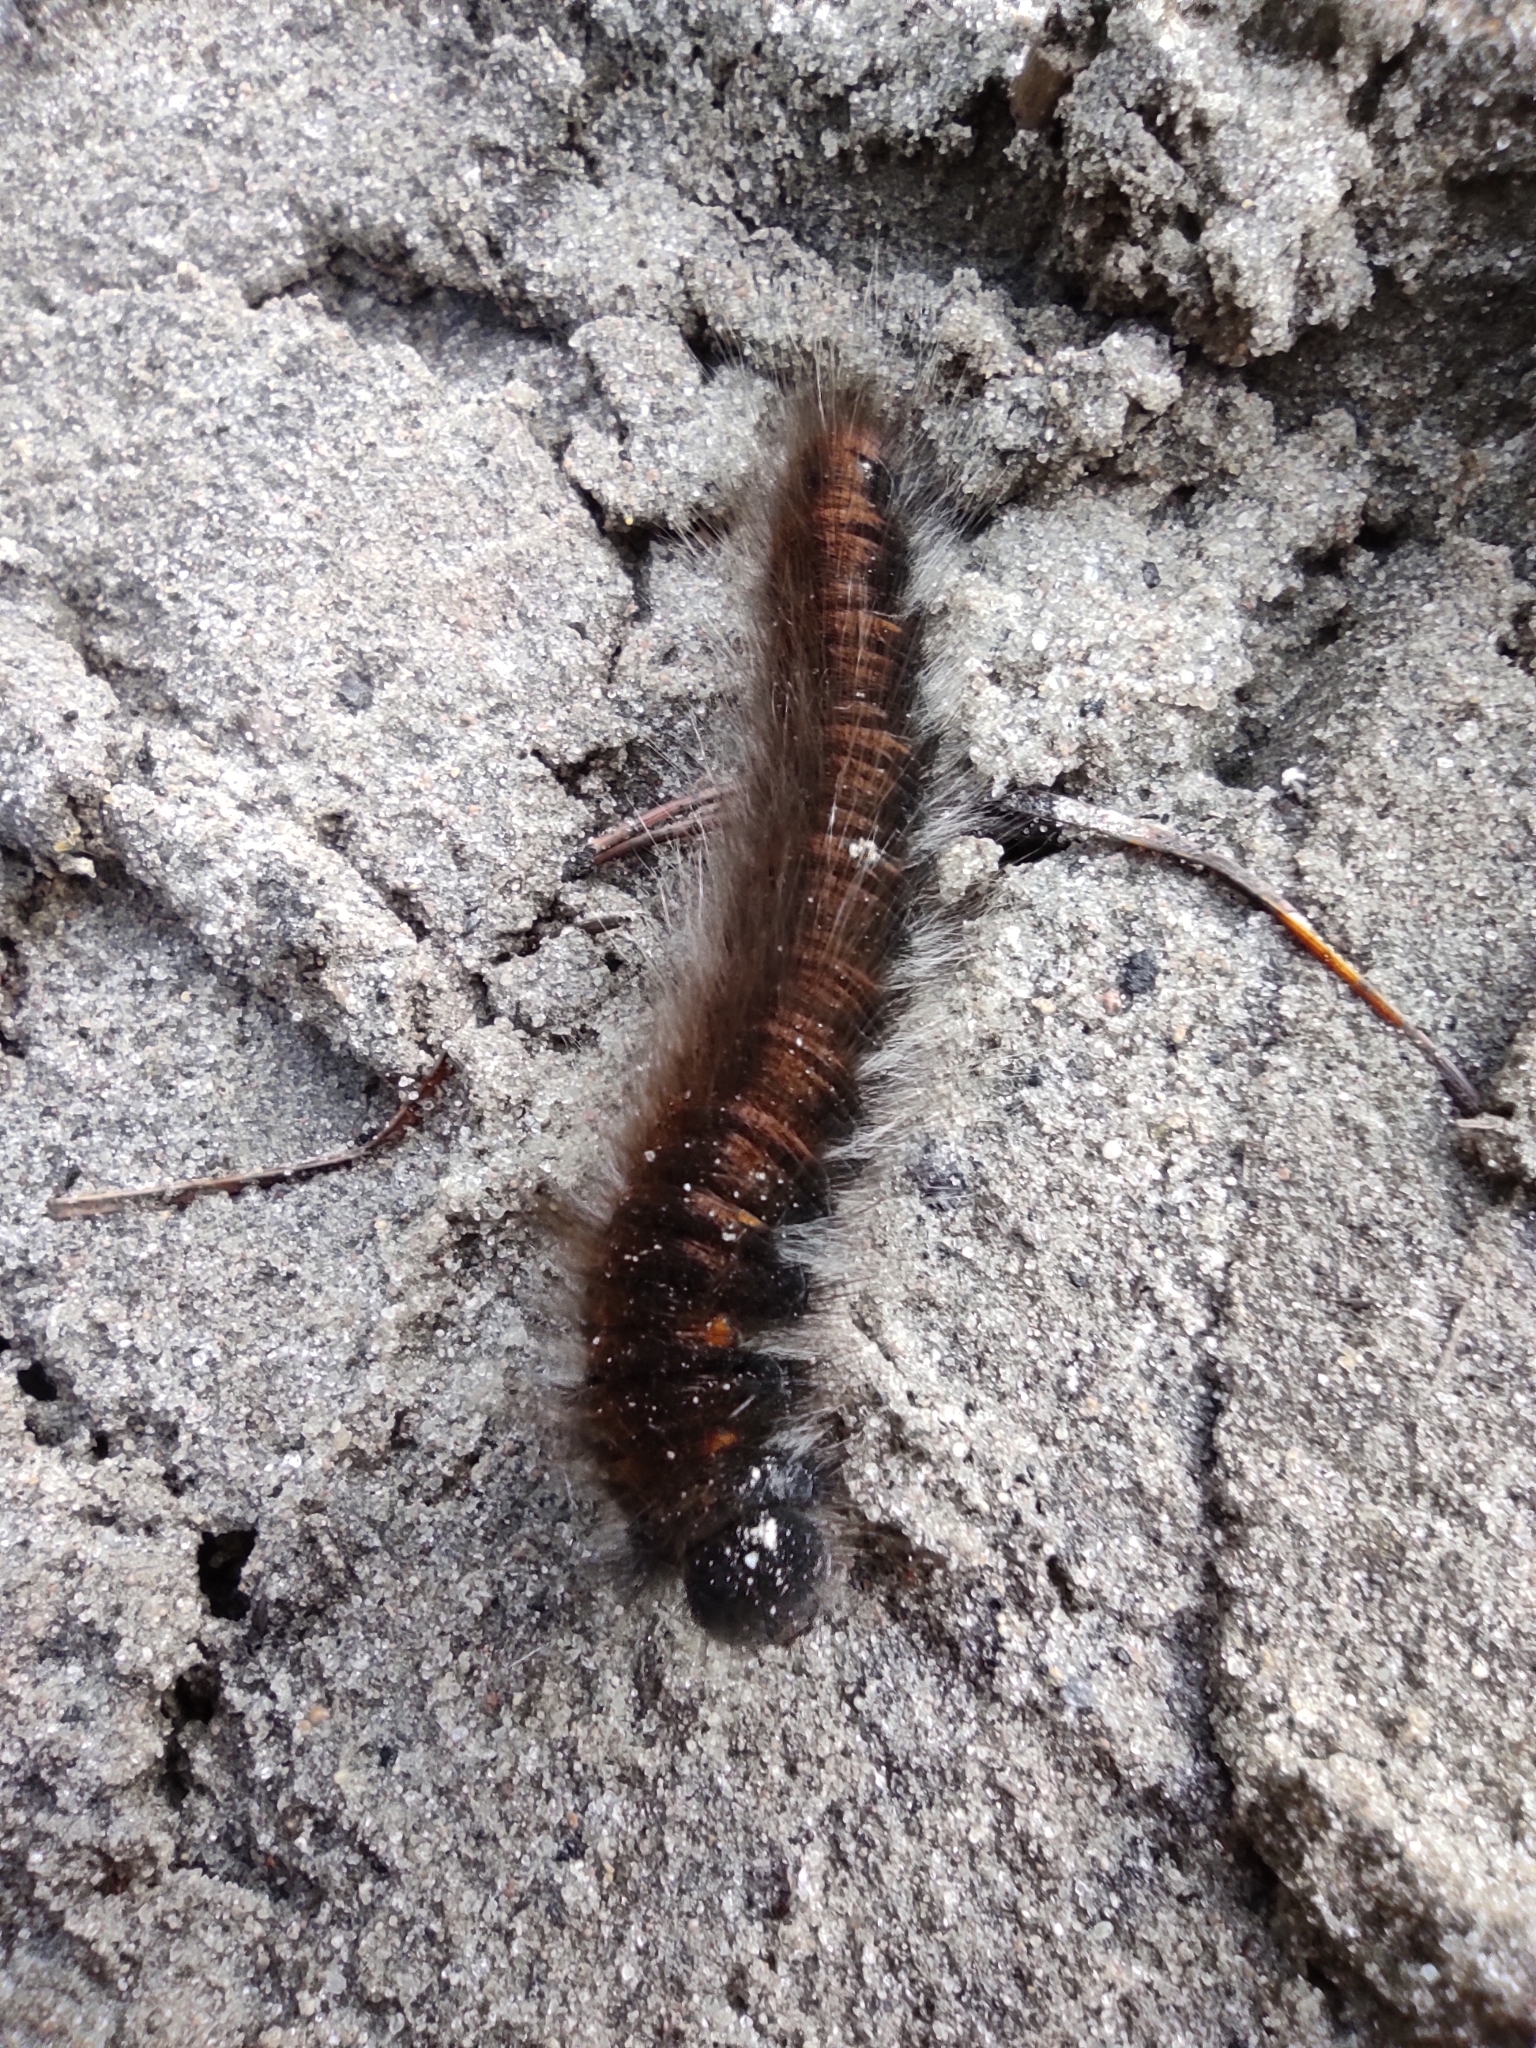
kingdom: Animalia
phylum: Arthropoda
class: Insecta
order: Lepidoptera
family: Lasiocampidae
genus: Macrothylacia
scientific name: Macrothylacia rubi
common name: Fox moth
